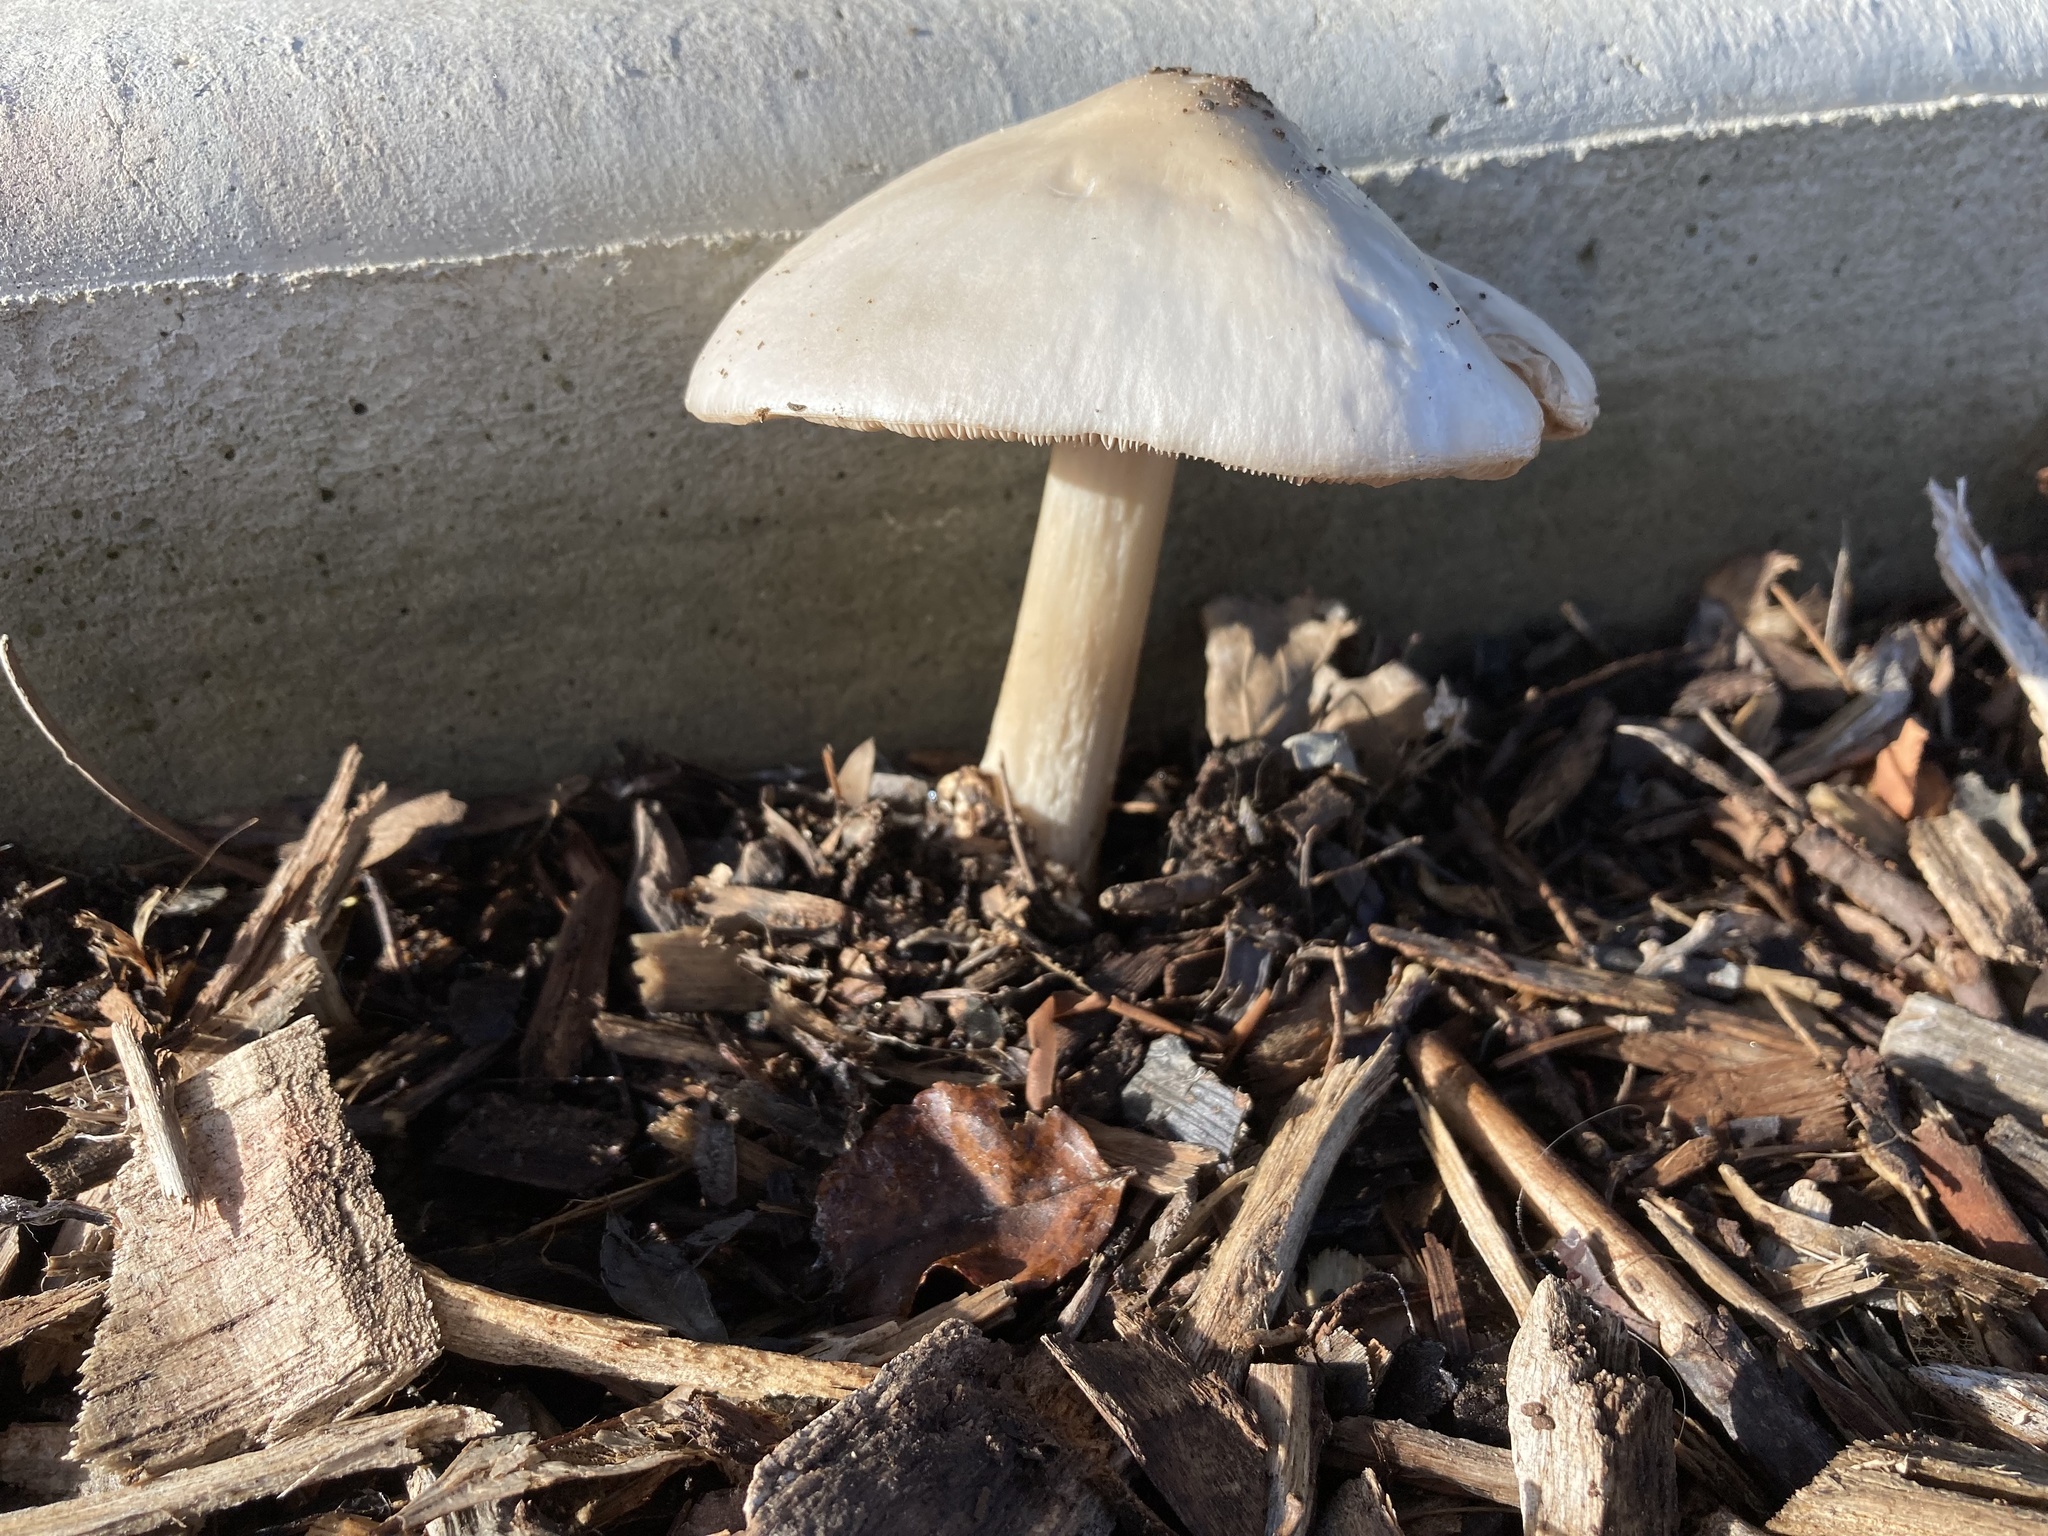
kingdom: Fungi
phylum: Basidiomycota
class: Agaricomycetes
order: Agaricales
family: Pluteaceae
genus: Volvopluteus
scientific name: Volvopluteus gloiocephalus
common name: Stubble rosegill
